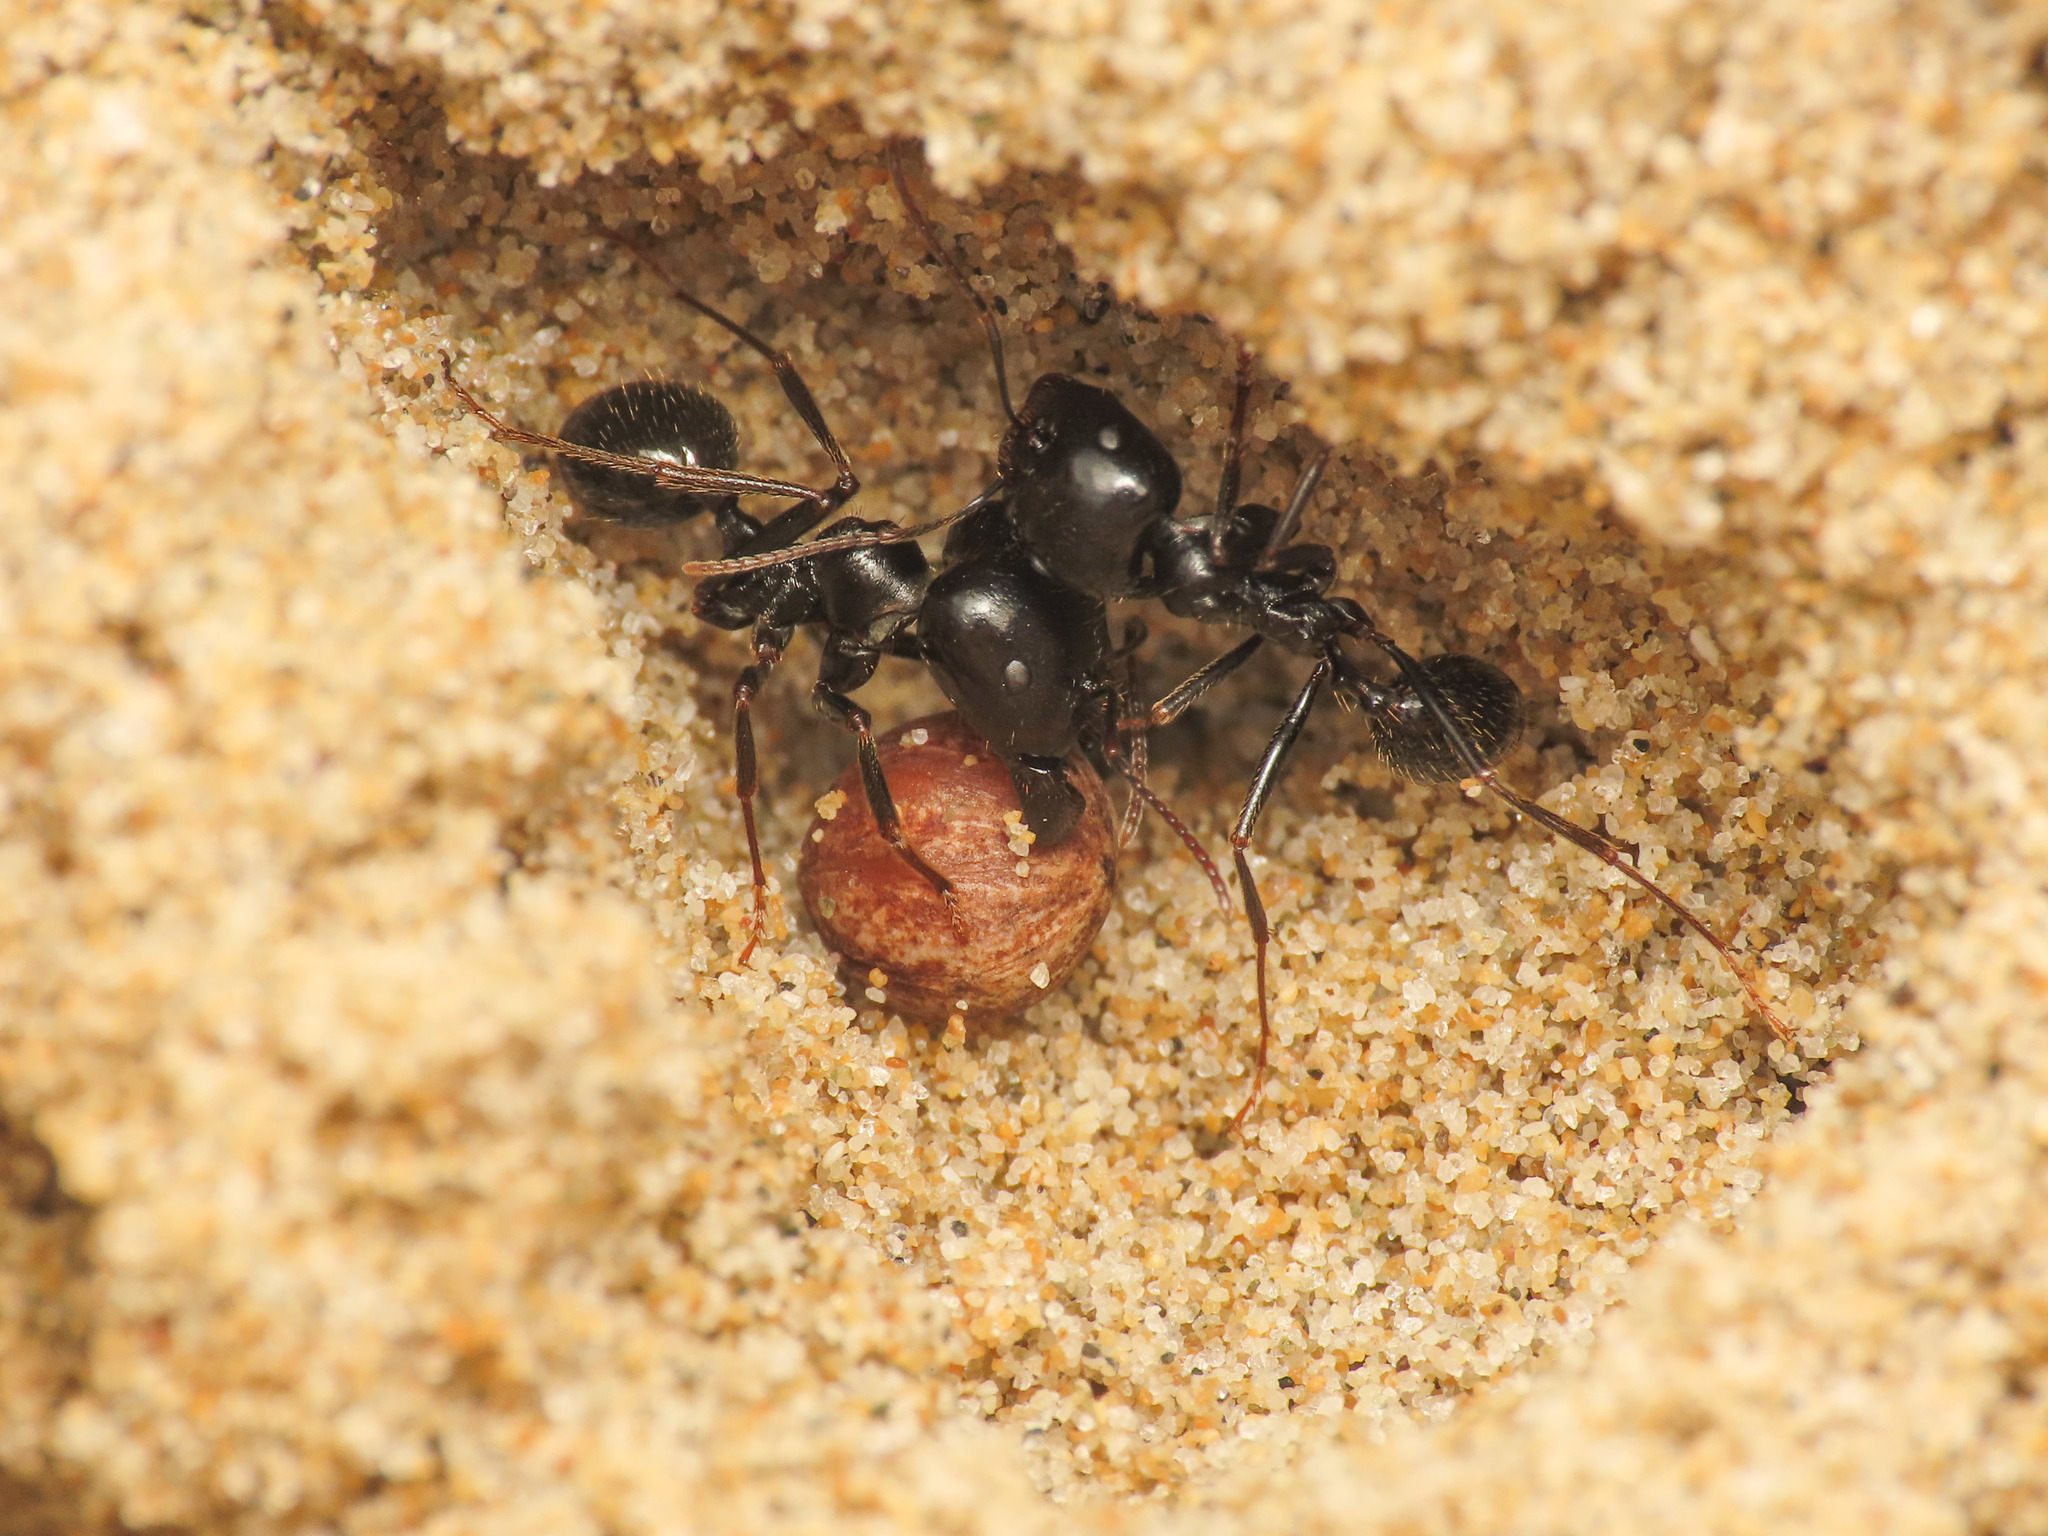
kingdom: Animalia
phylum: Arthropoda
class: Insecta
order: Hymenoptera
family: Formicidae
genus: Messor
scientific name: Messor capitatus
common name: European seed harvesting ant
